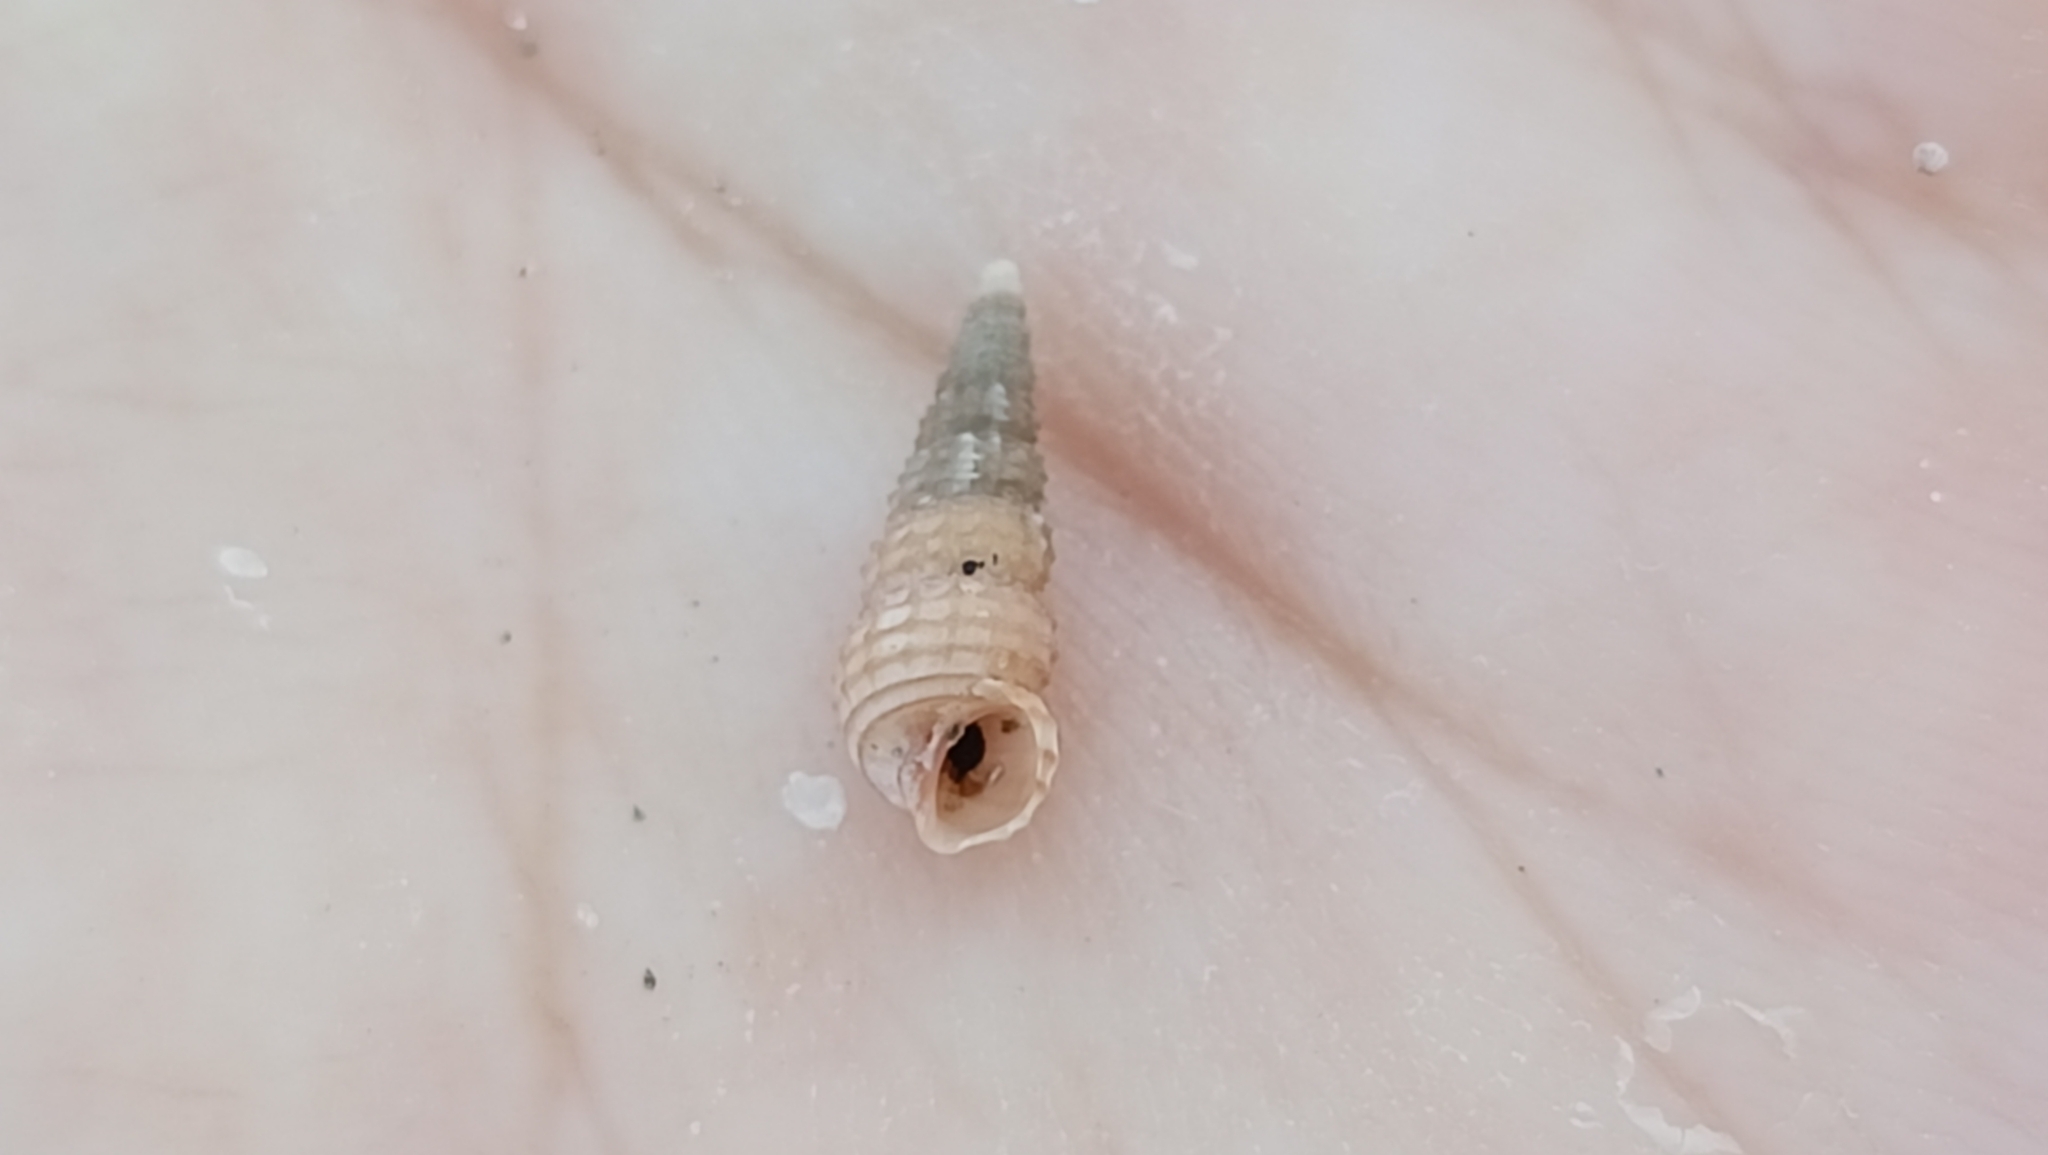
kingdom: Animalia
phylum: Mollusca
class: Gastropoda
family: Cerithiidae
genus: Bittium
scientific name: Bittium reticulatum
